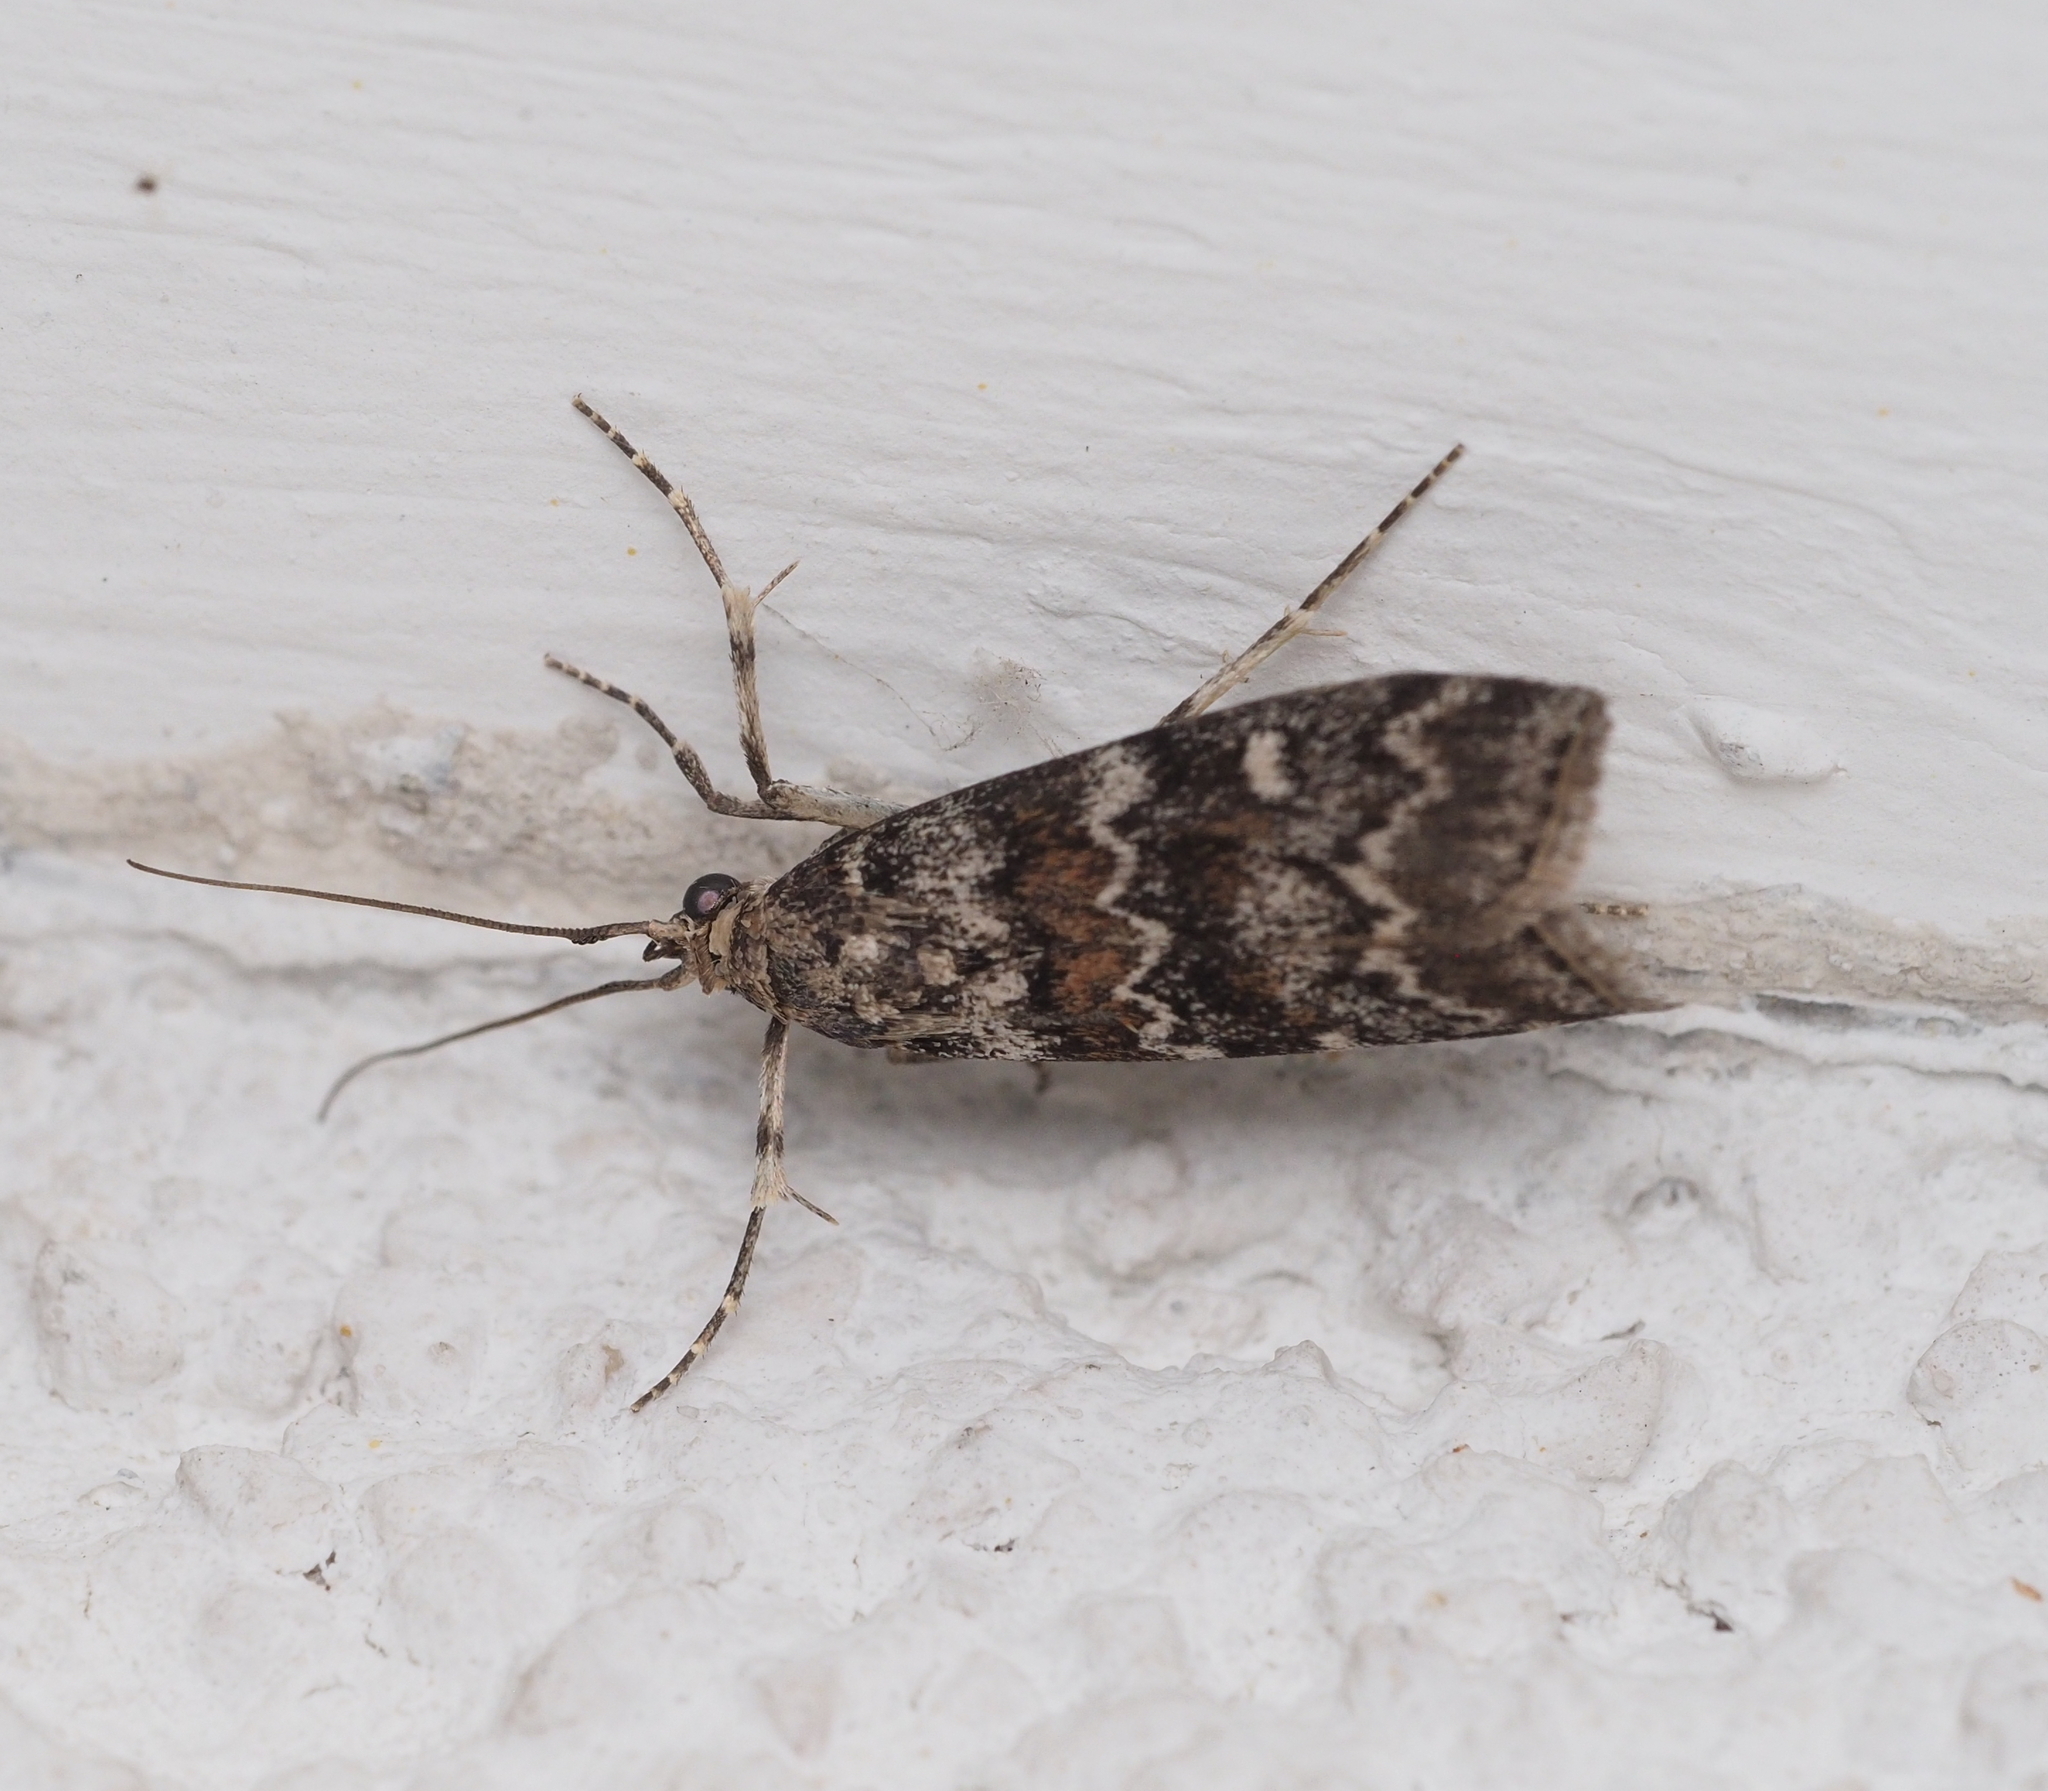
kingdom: Animalia
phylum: Arthropoda
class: Insecta
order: Lepidoptera
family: Pyralidae
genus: Dioryctria
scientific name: Dioryctria abietella
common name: Dark pine knot-horn
